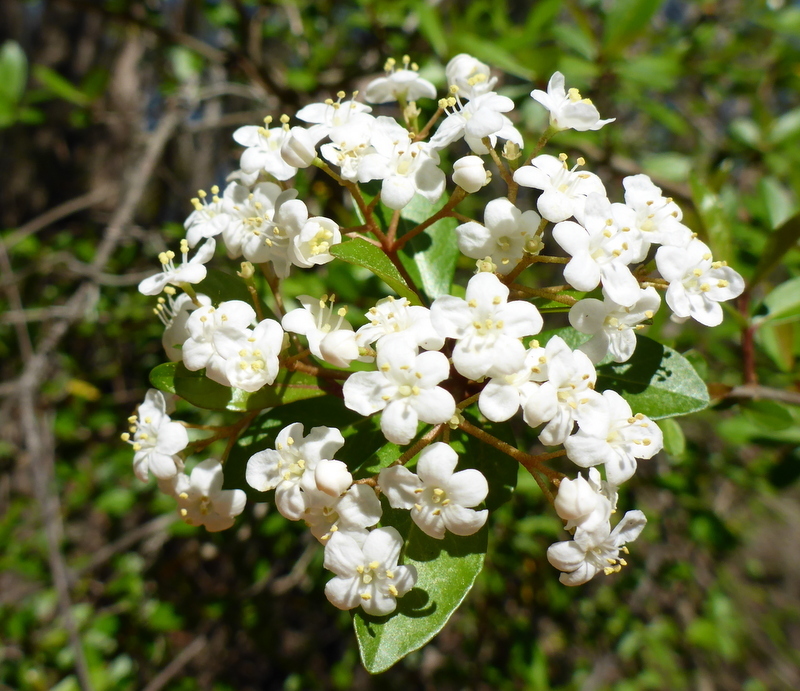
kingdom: Plantae
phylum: Tracheophyta
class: Magnoliopsida
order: Dipsacales
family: Viburnaceae
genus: Viburnum
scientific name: Viburnum obovatum
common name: Walter's viburnum
